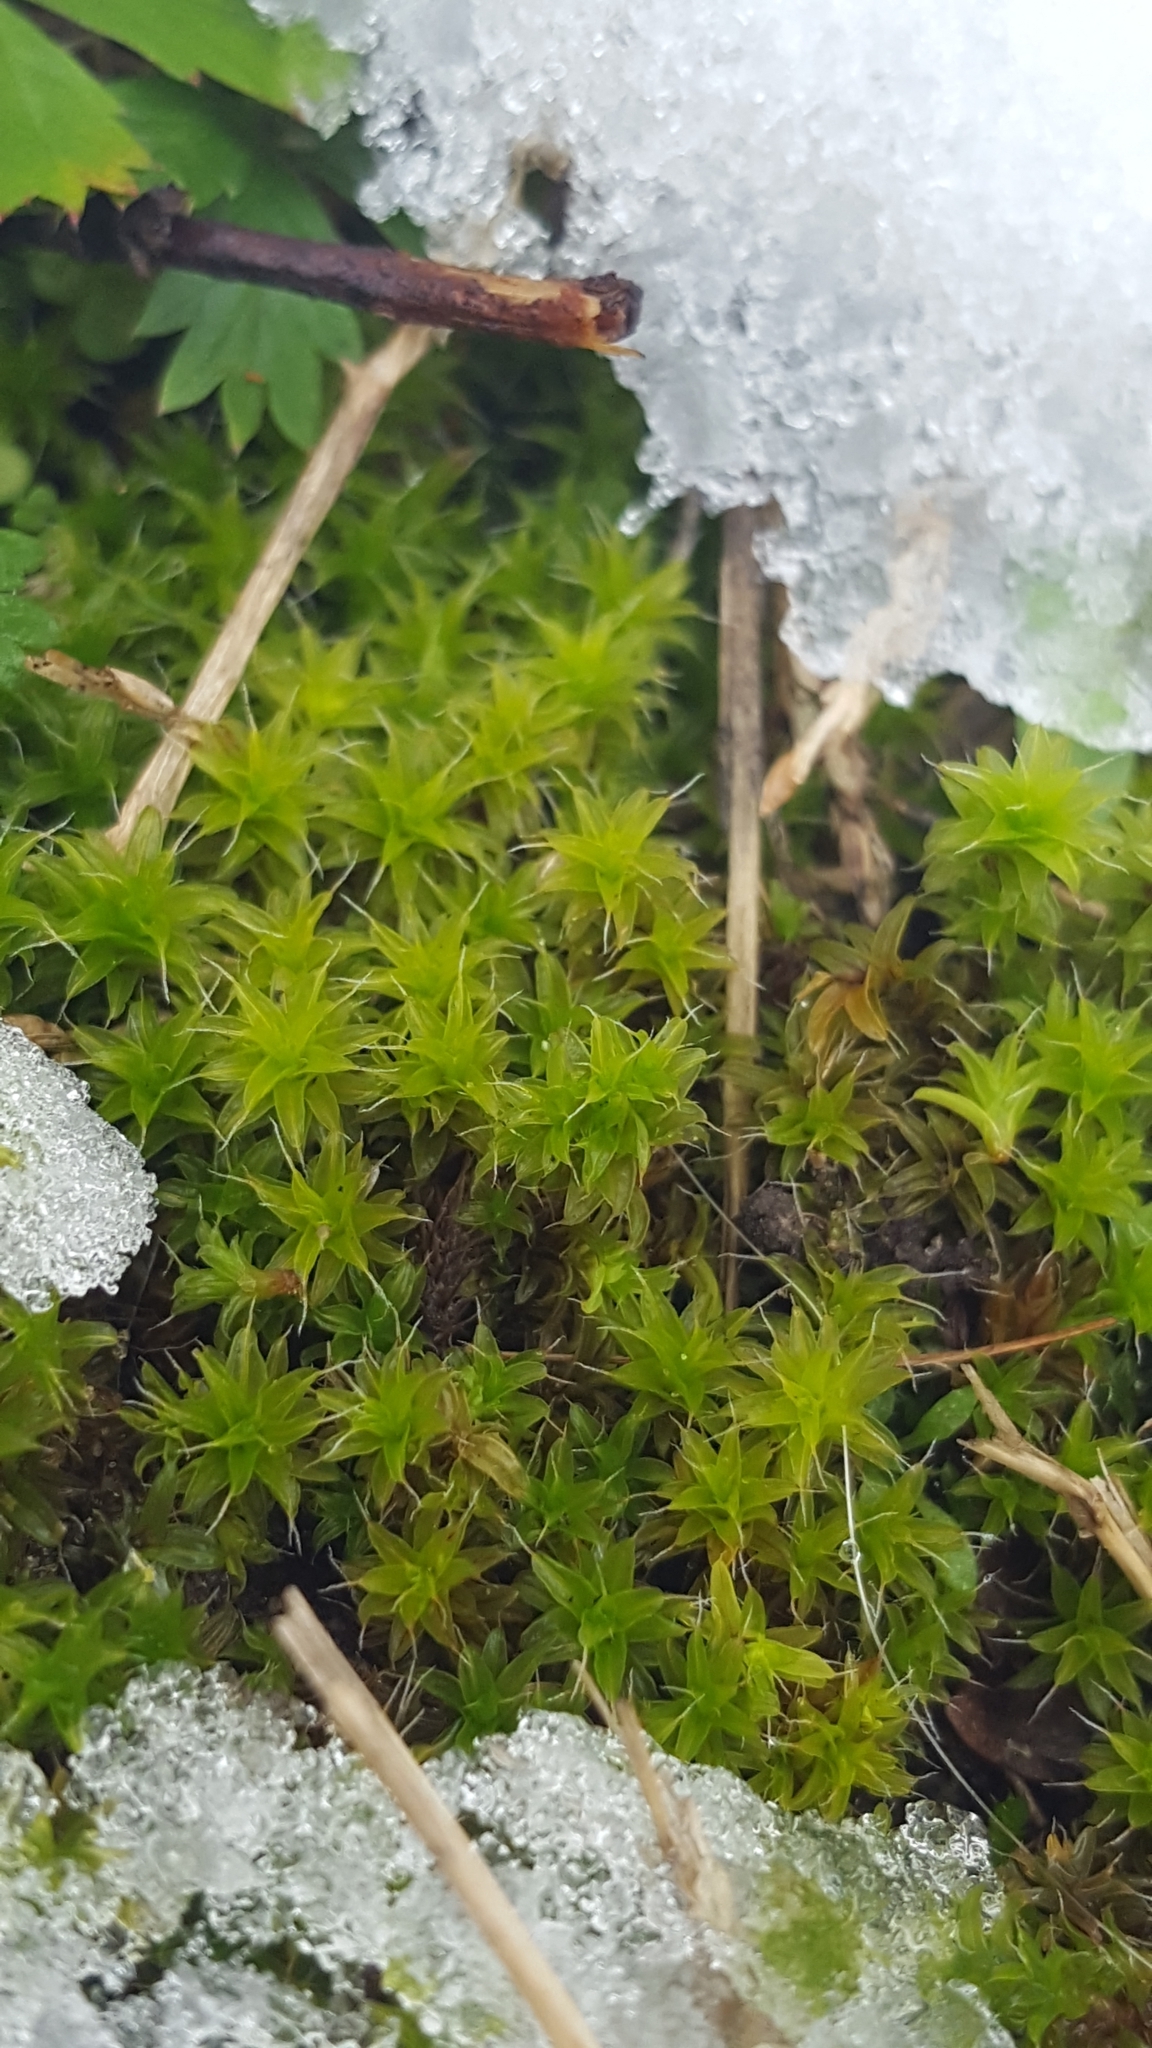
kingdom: Plantae
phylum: Bryophyta
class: Bryopsida
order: Pottiales
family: Pottiaceae
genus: Syntrichia
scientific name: Syntrichia ruralis
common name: Sidewalk screw moss
